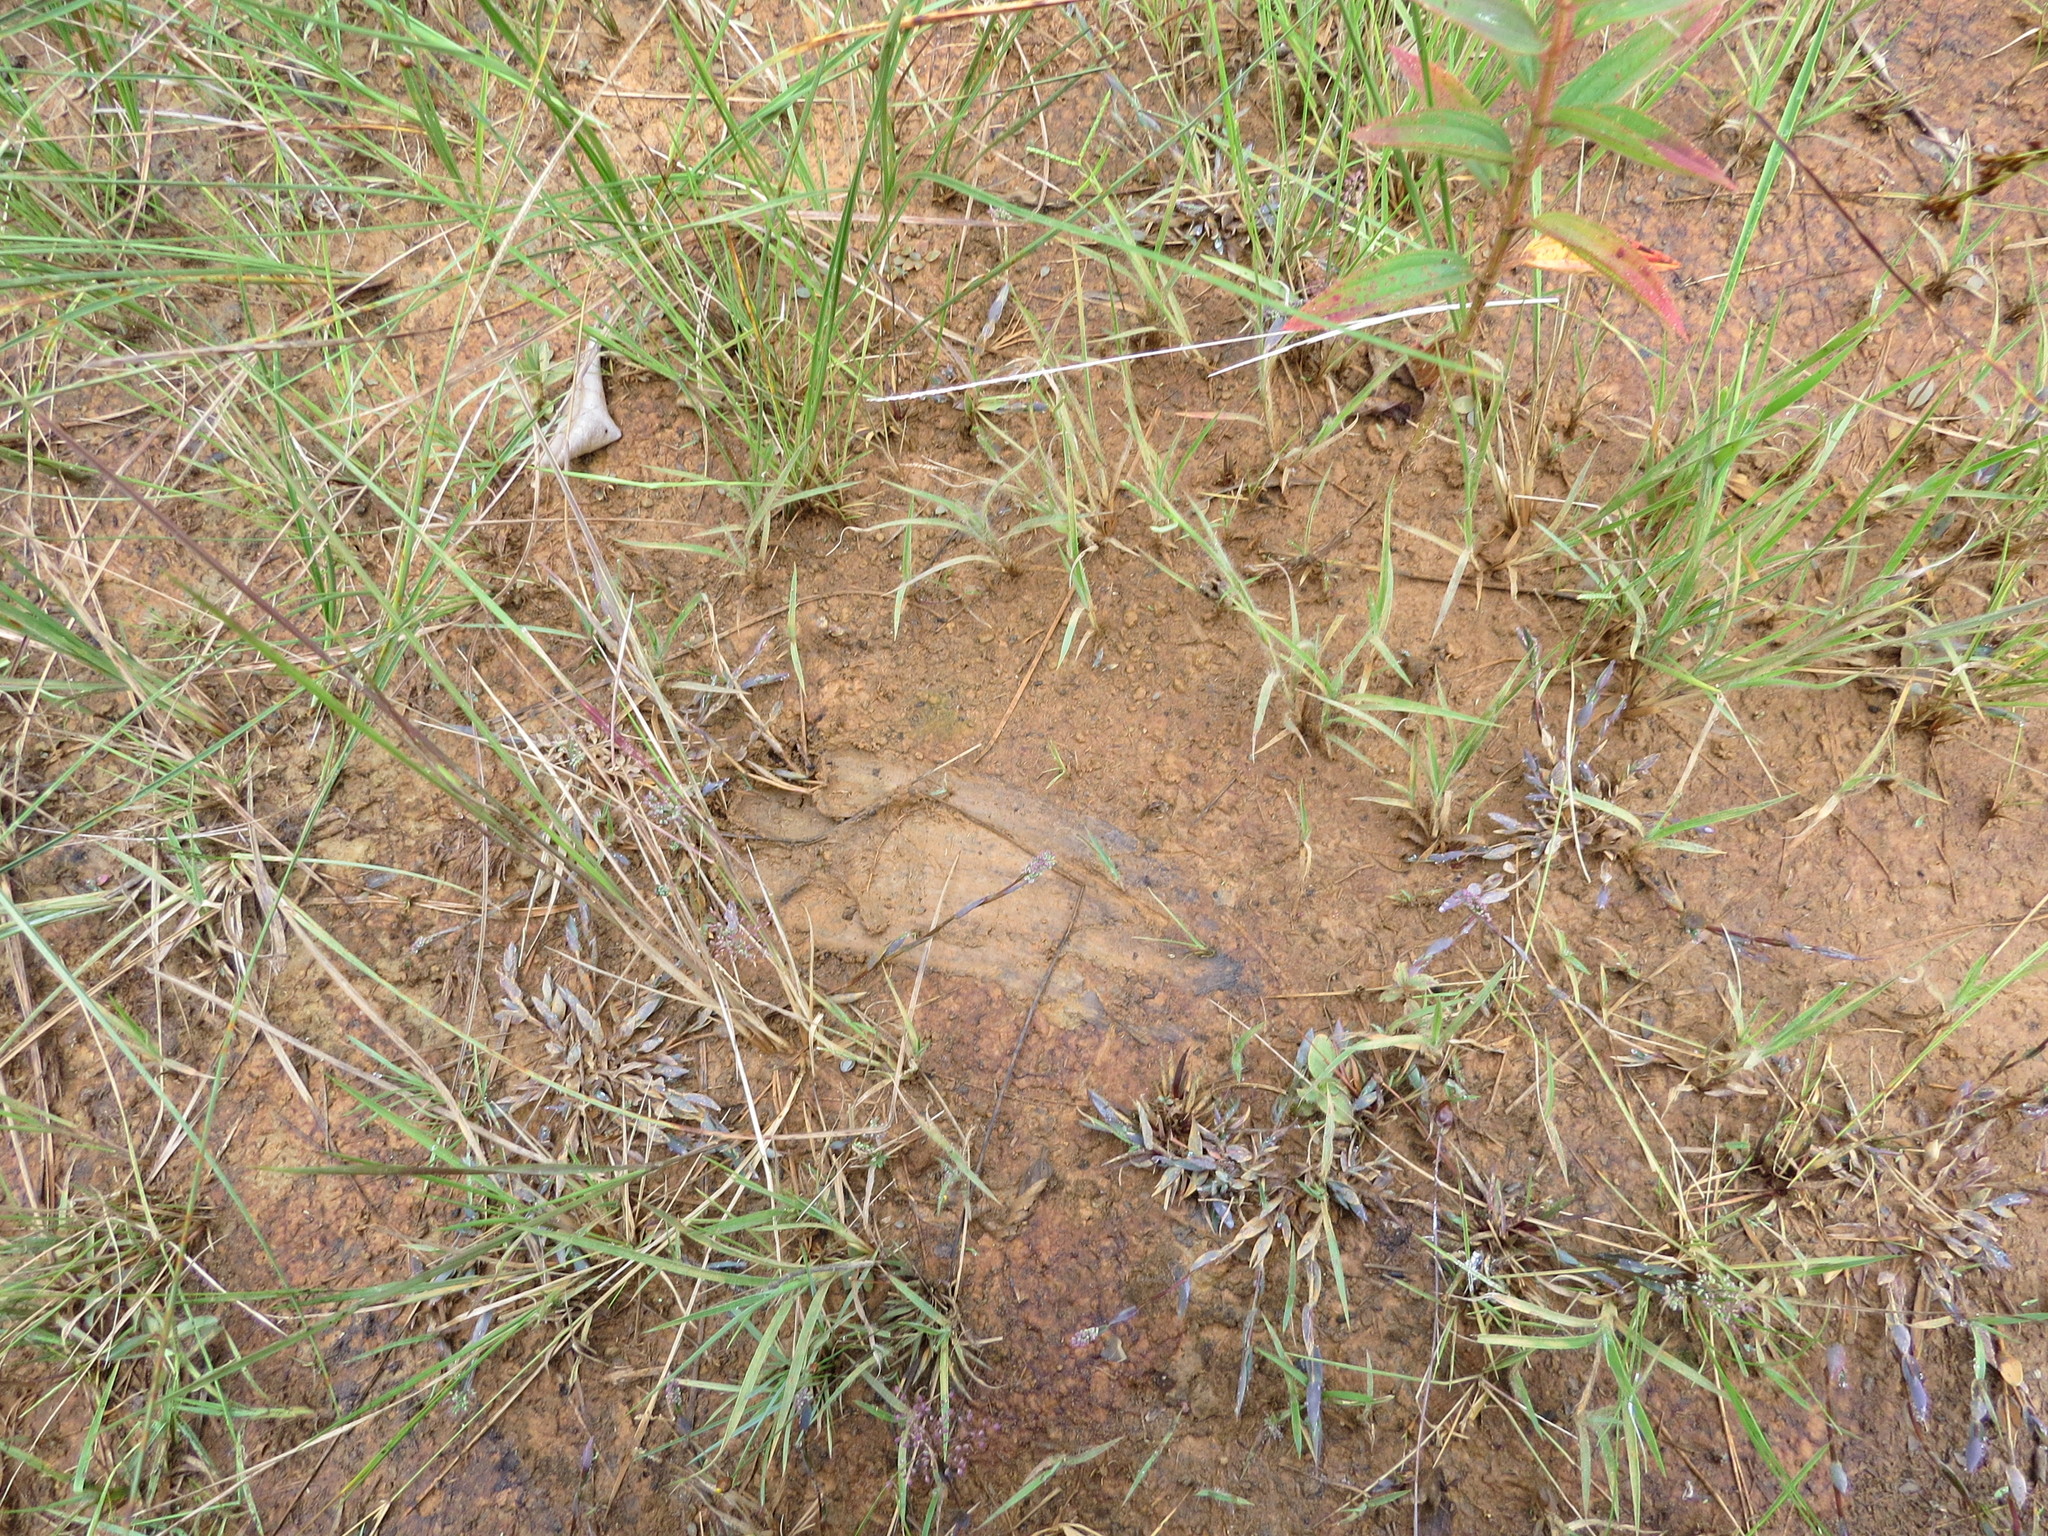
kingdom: Animalia
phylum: Chordata
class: Mammalia
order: Carnivora
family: Felidae
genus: Puma
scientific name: Puma concolor
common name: Puma
